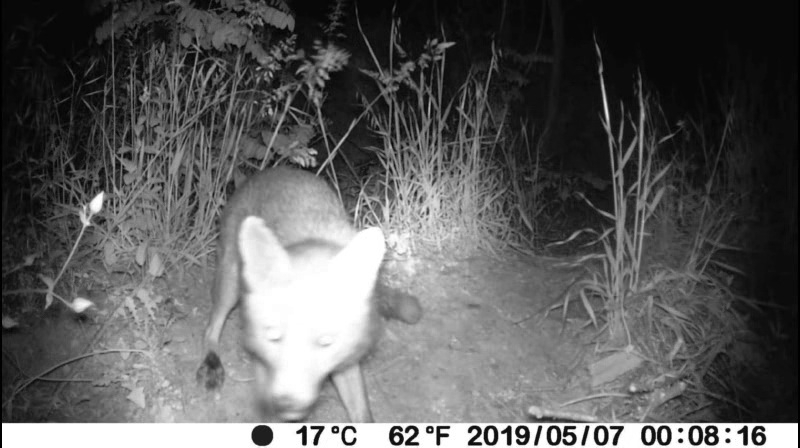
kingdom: Animalia
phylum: Chordata
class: Mammalia
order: Carnivora
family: Canidae
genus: Vulpes
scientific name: Vulpes vulpes
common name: Red fox
